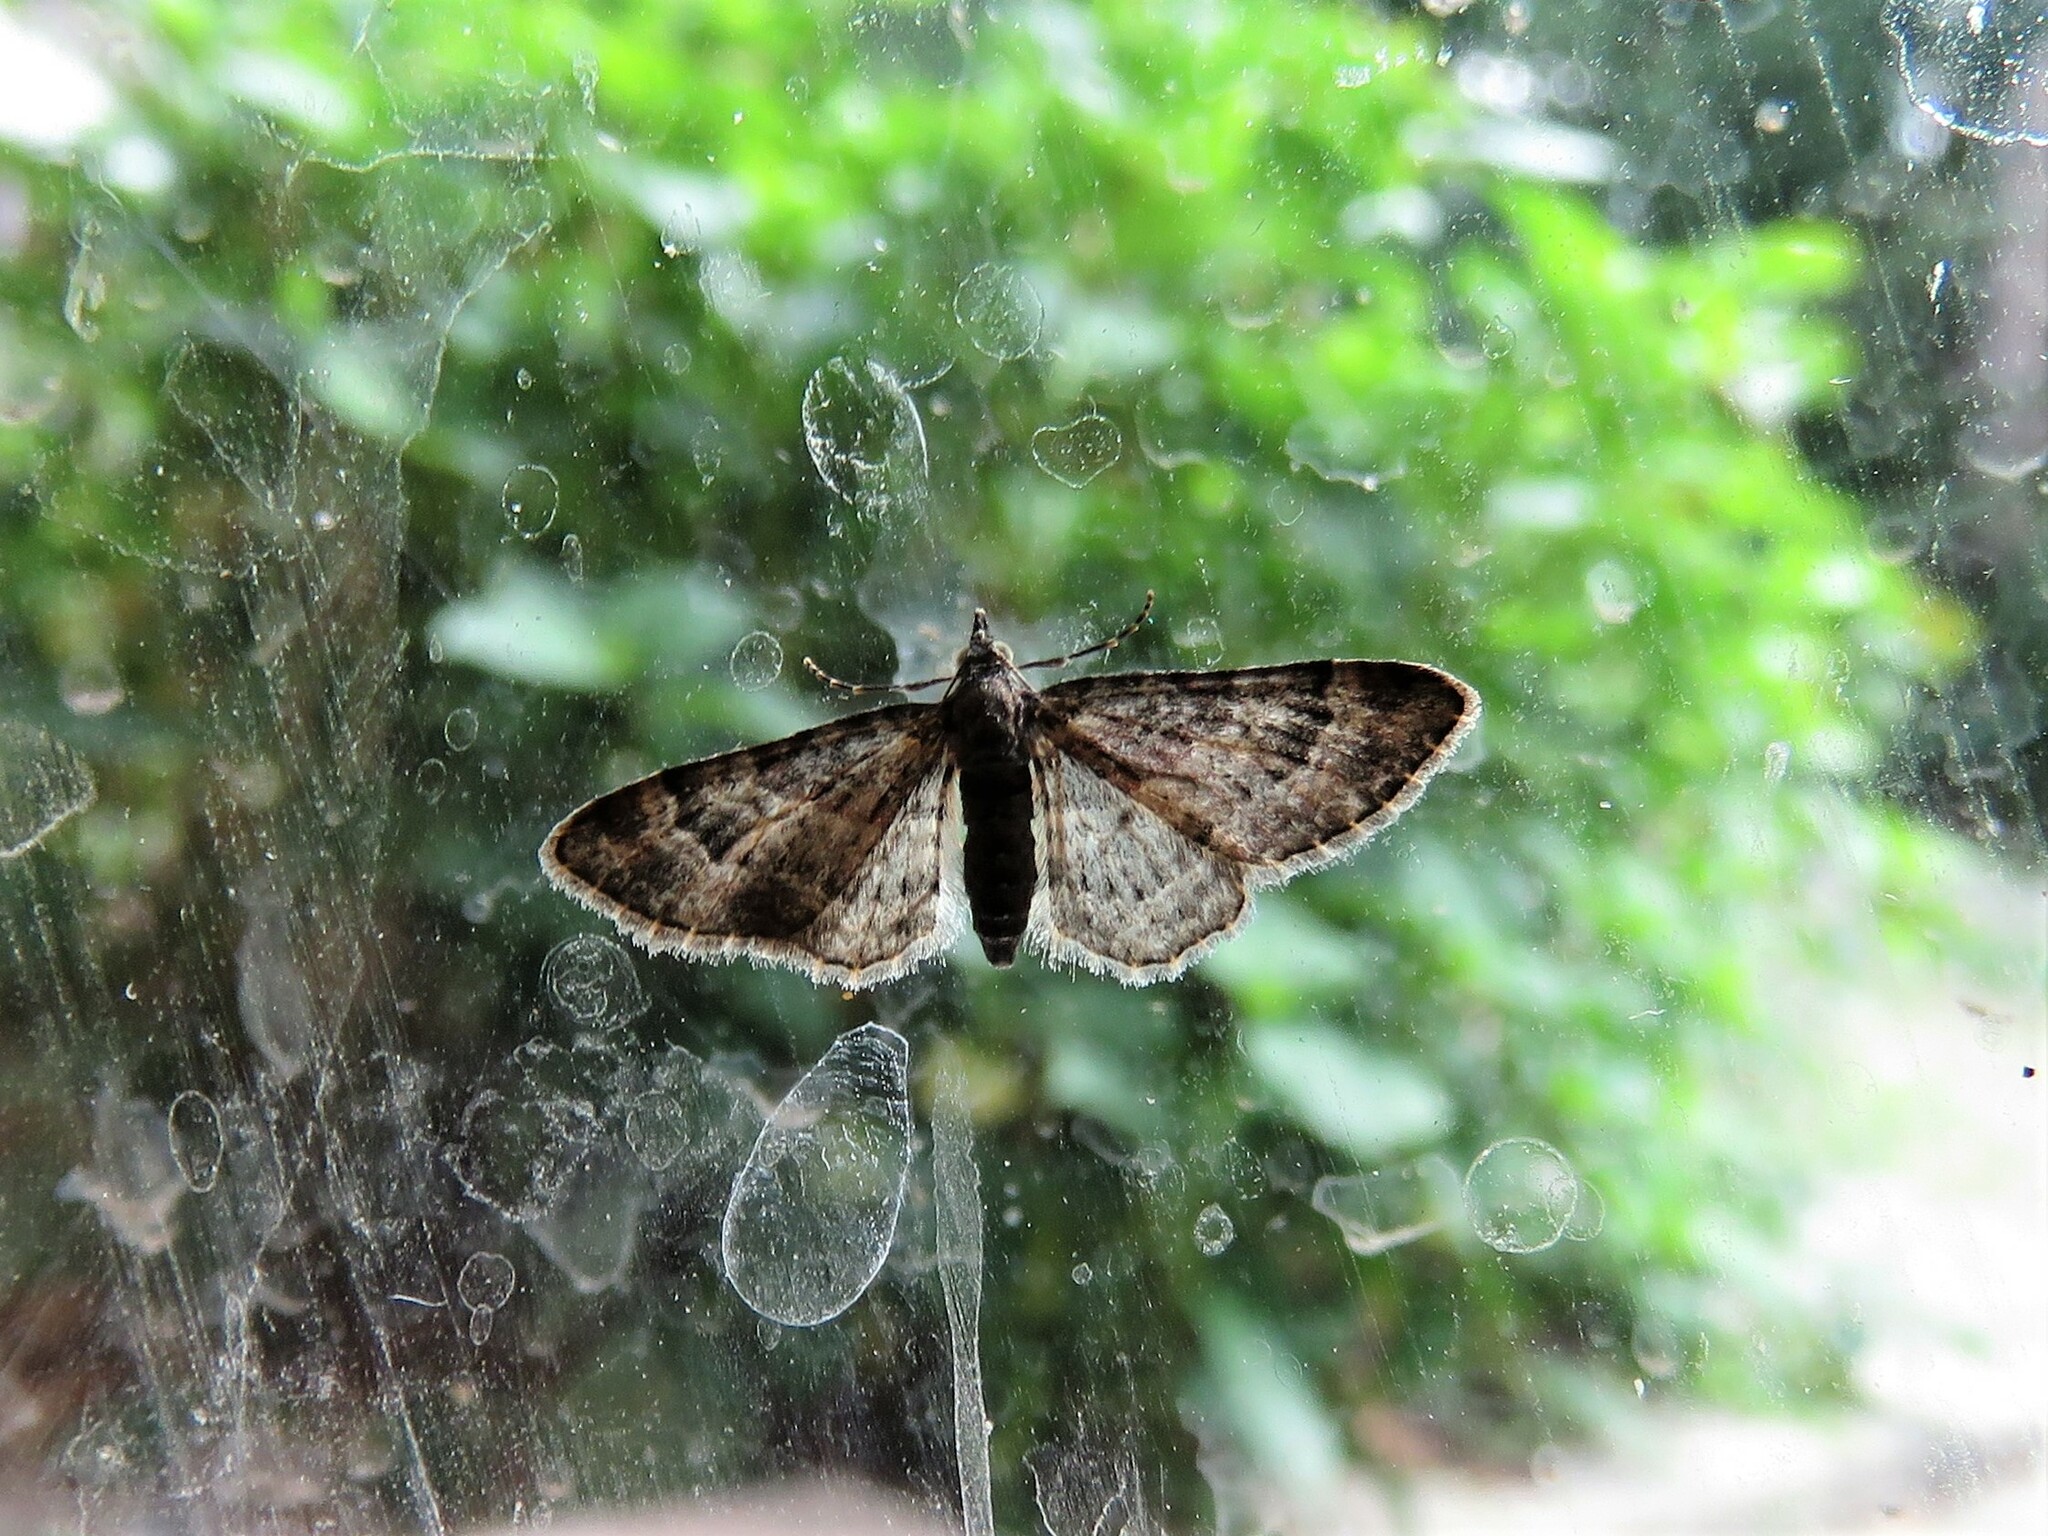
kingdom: Animalia
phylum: Arthropoda
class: Insecta
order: Lepidoptera
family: Geometridae
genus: Gymnoscelis
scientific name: Gymnoscelis rufifasciata
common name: Double-striped pug
